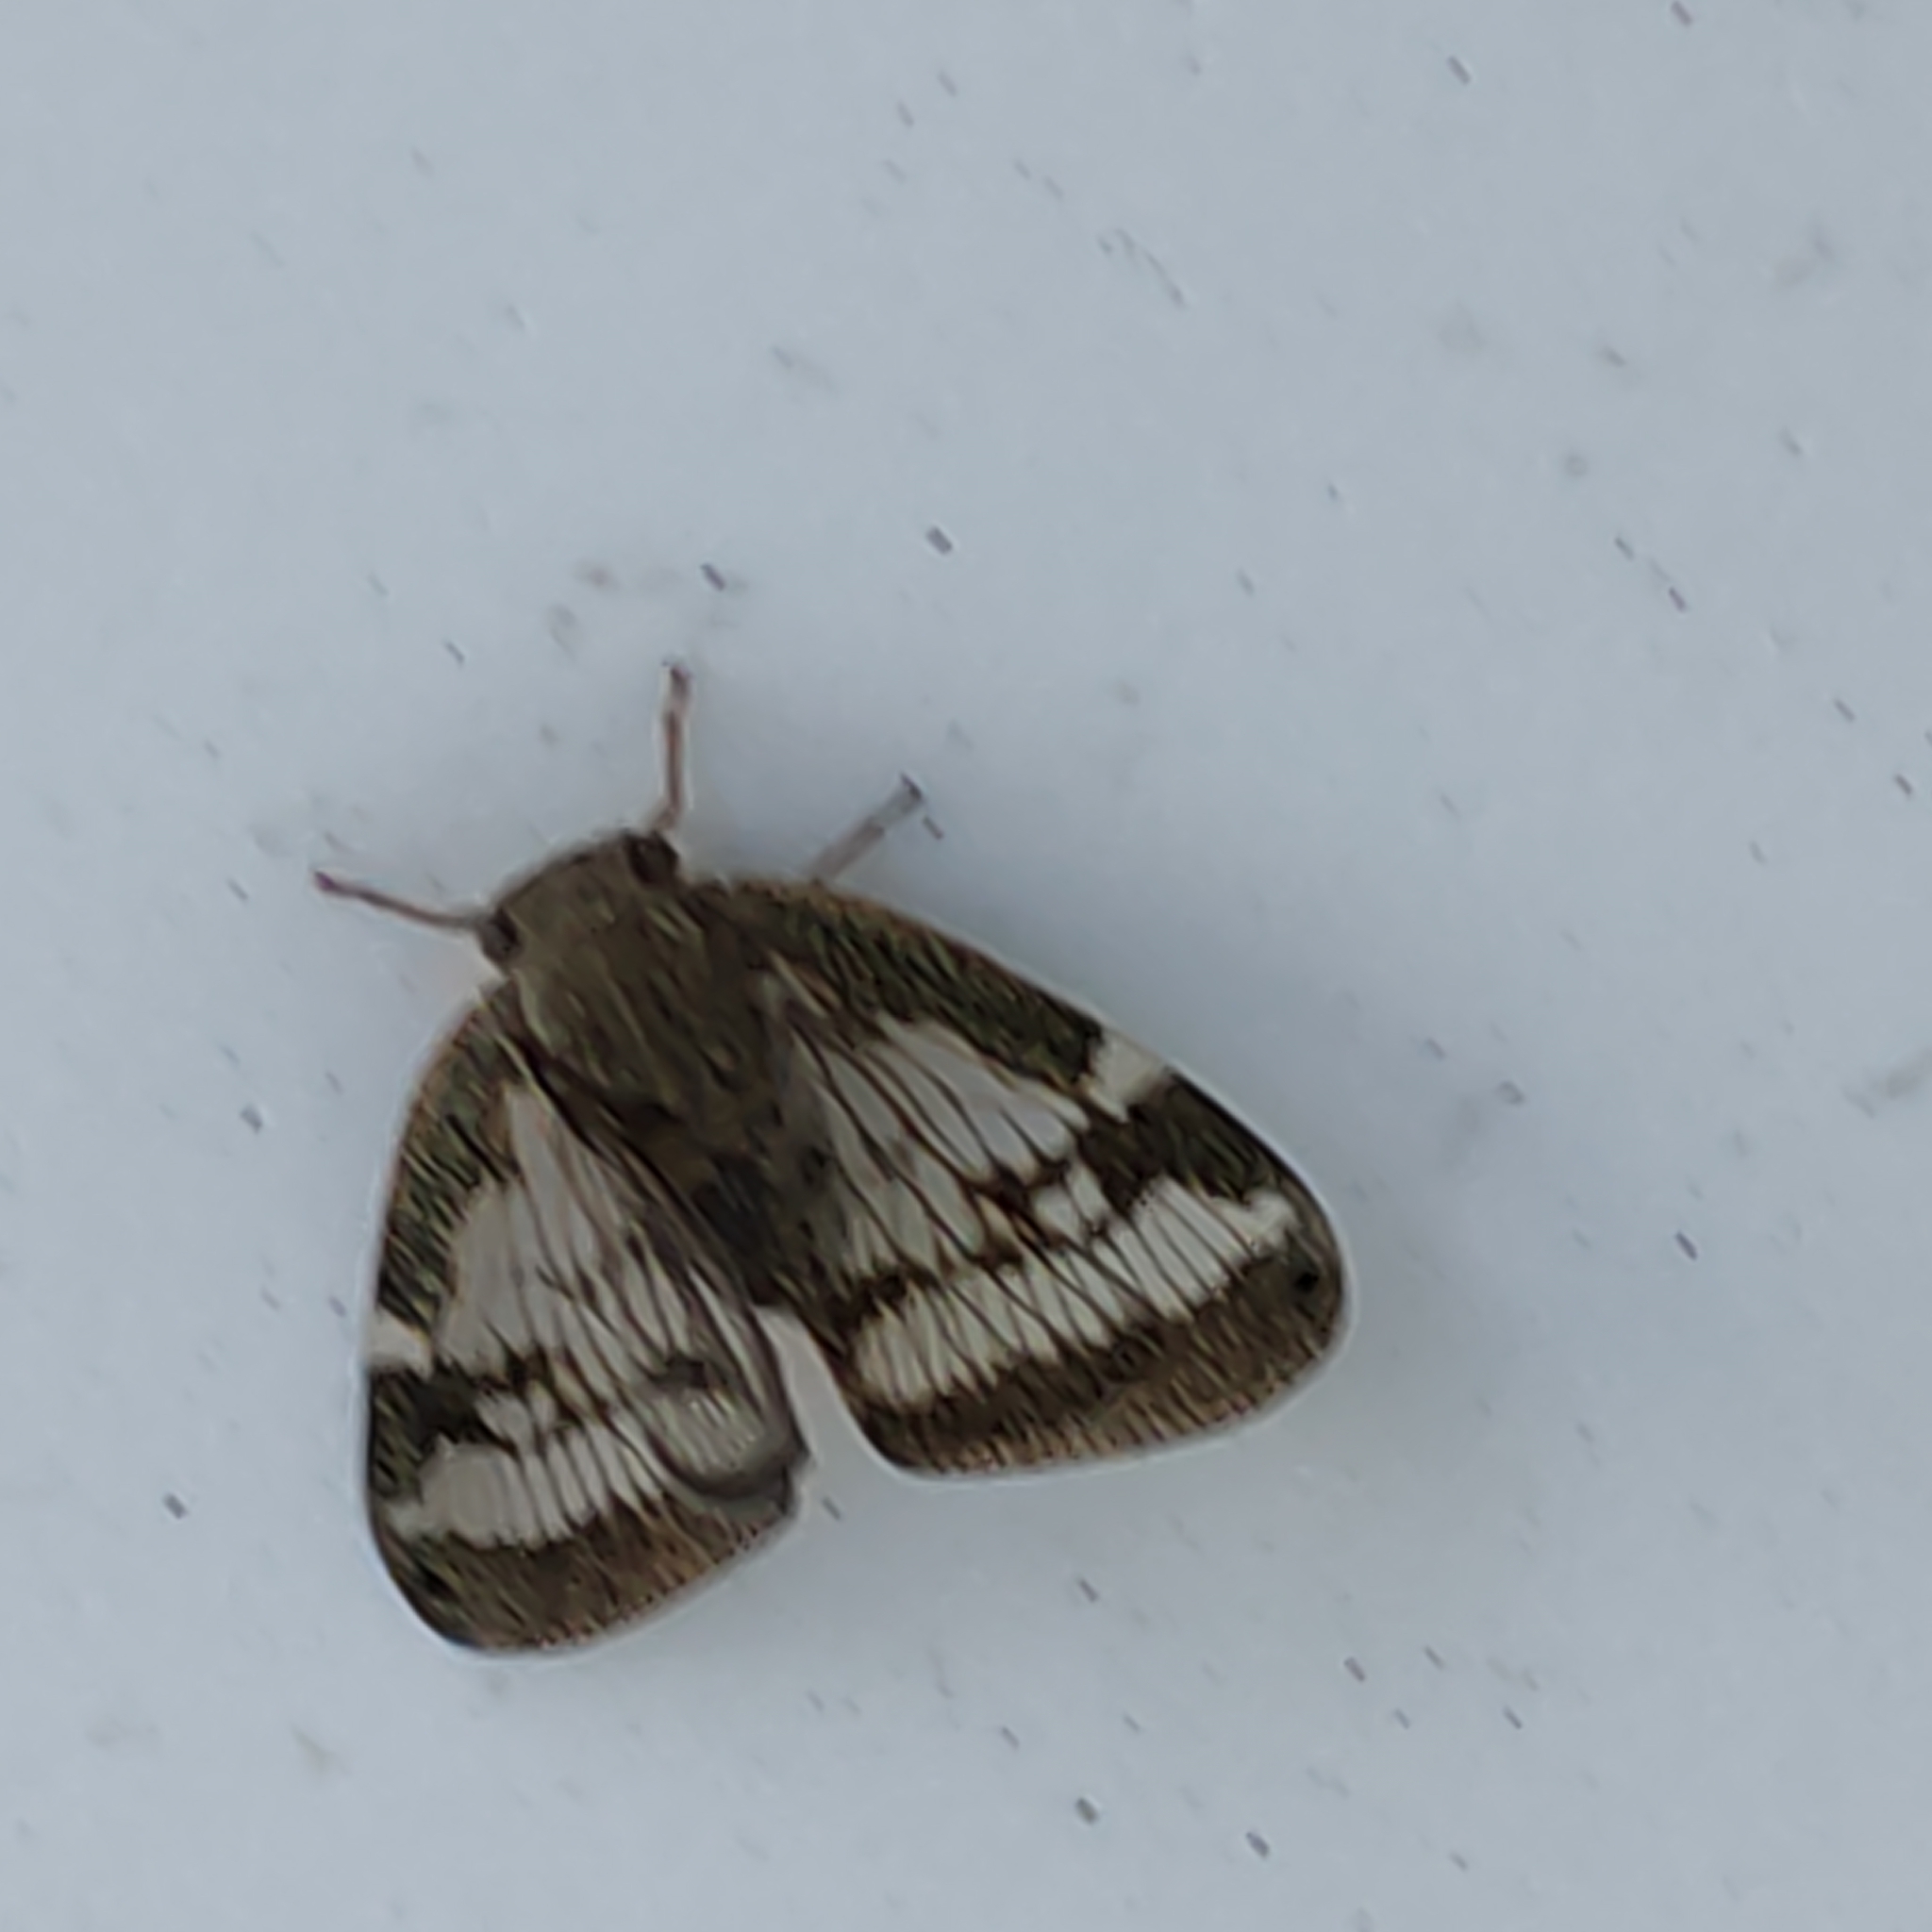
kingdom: Animalia
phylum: Arthropoda
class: Insecta
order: Hemiptera
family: Ricaniidae
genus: Scolypopa
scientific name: Scolypopa australis
